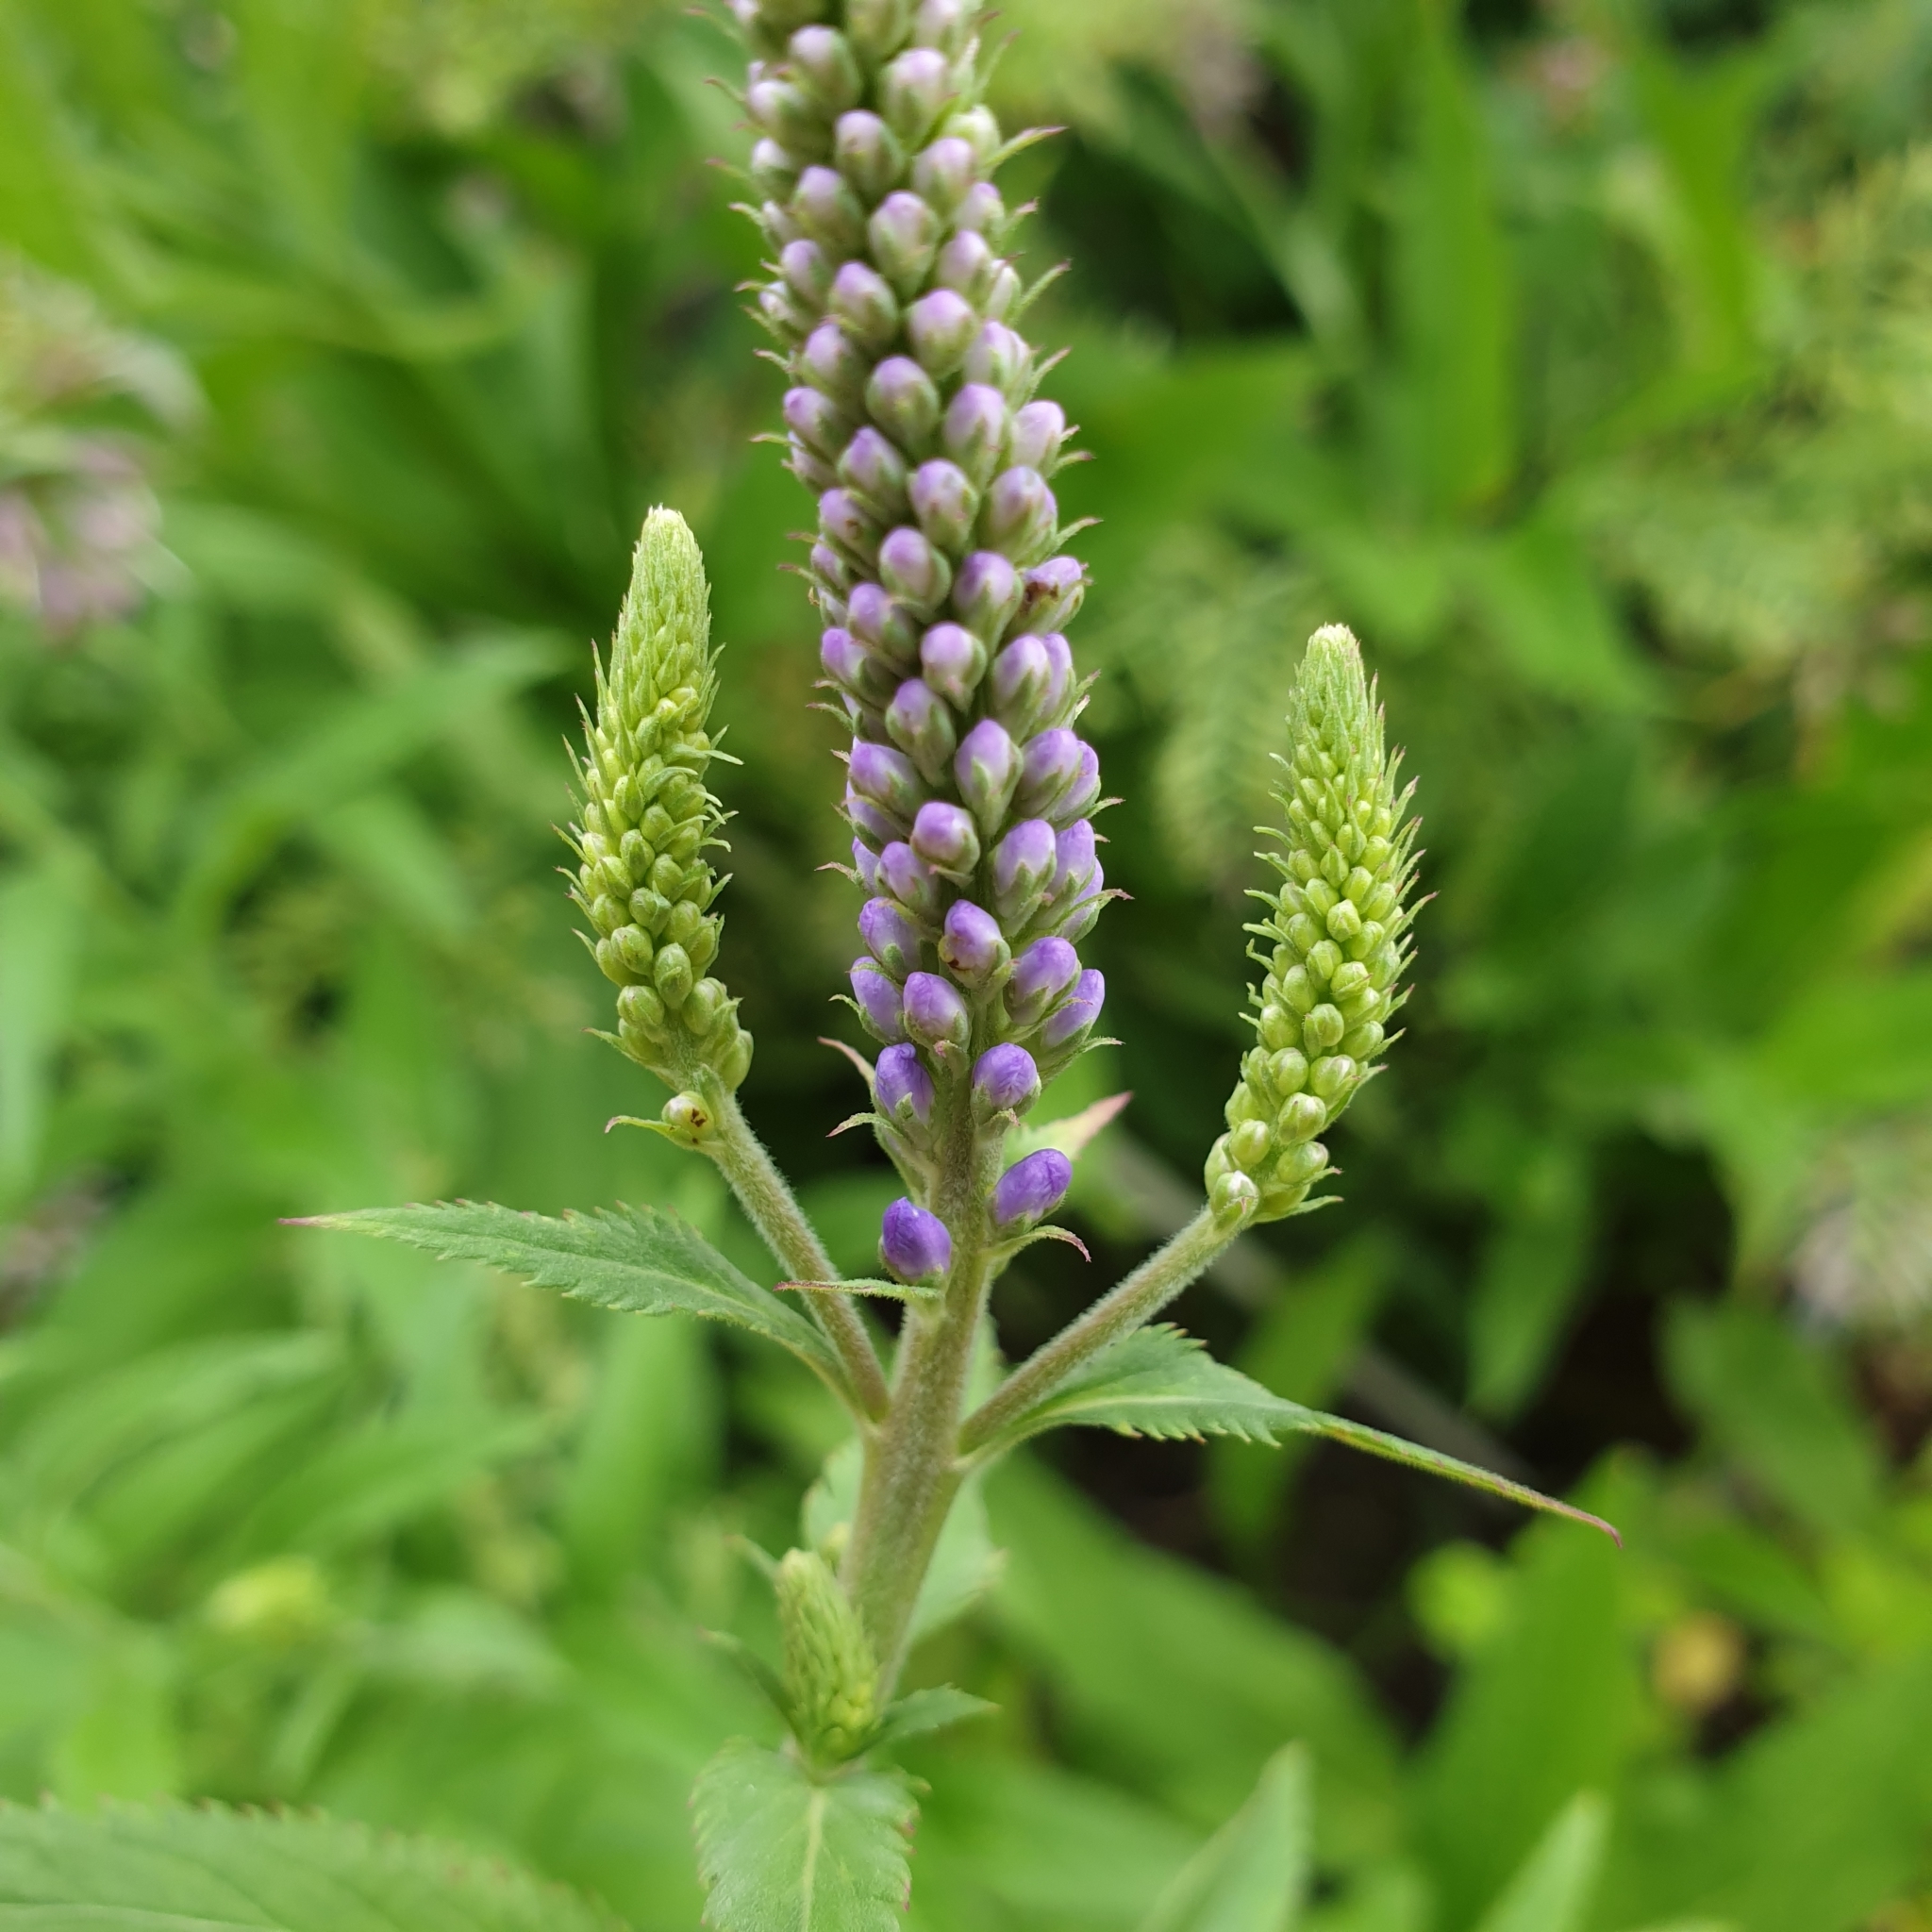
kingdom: Plantae
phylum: Tracheophyta
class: Magnoliopsida
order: Lamiales
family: Plantaginaceae
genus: Veronica
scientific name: Veronica longifolia
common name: Garden speedwell
